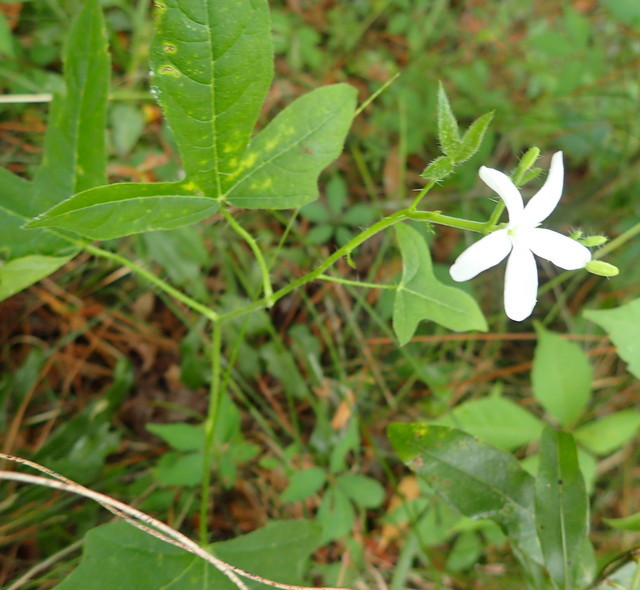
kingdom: Plantae
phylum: Tracheophyta
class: Magnoliopsida
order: Malpighiales
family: Euphorbiaceae
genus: Cnidoscolus
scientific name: Cnidoscolus stimulosus
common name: Bull-nettle
